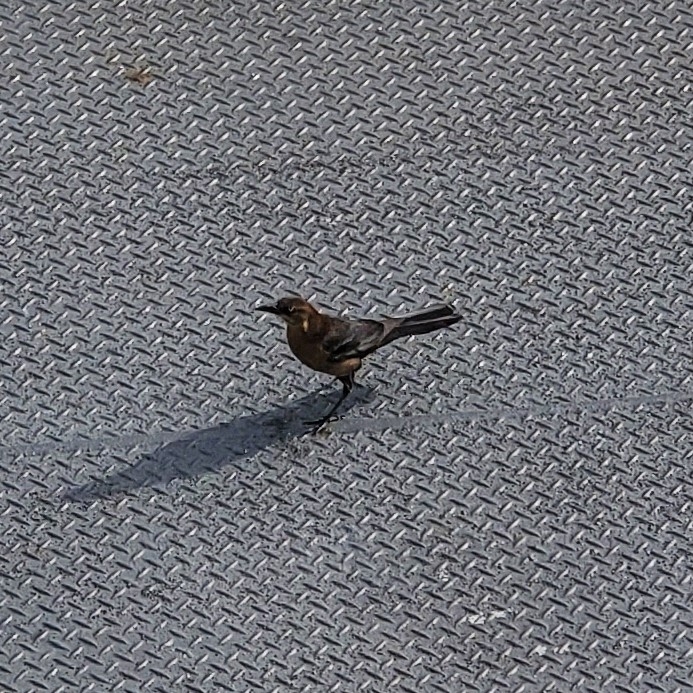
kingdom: Animalia
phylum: Chordata
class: Aves
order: Passeriformes
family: Icteridae
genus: Quiscalus
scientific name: Quiscalus major
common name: Boat-tailed grackle
